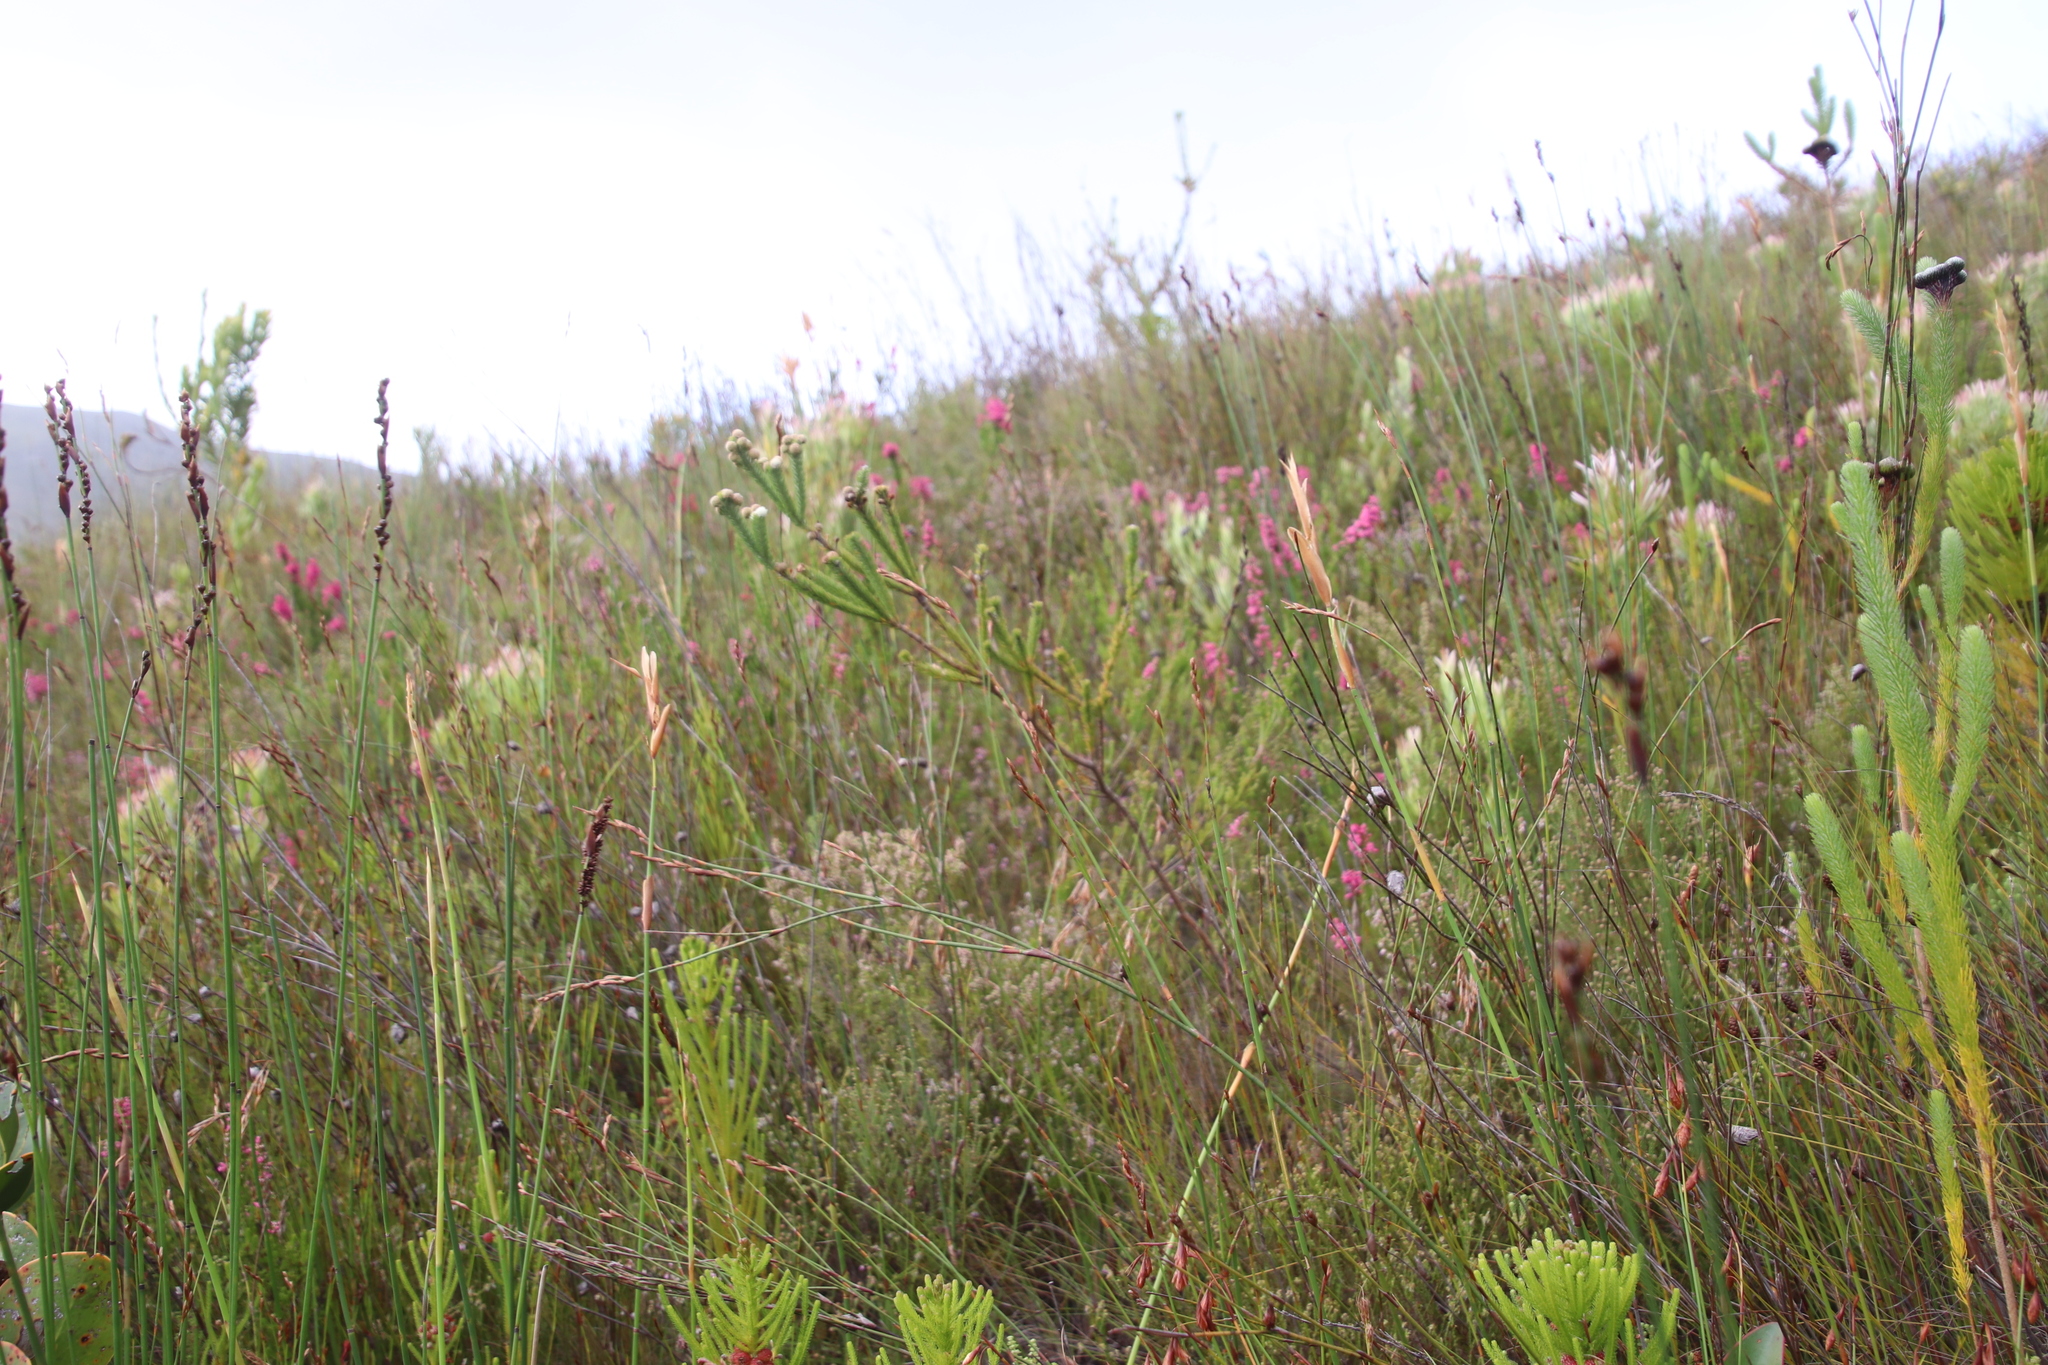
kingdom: Plantae
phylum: Tracheophyta
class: Magnoliopsida
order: Bruniales
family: Bruniaceae
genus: Berzelia
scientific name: Berzelia rubra
